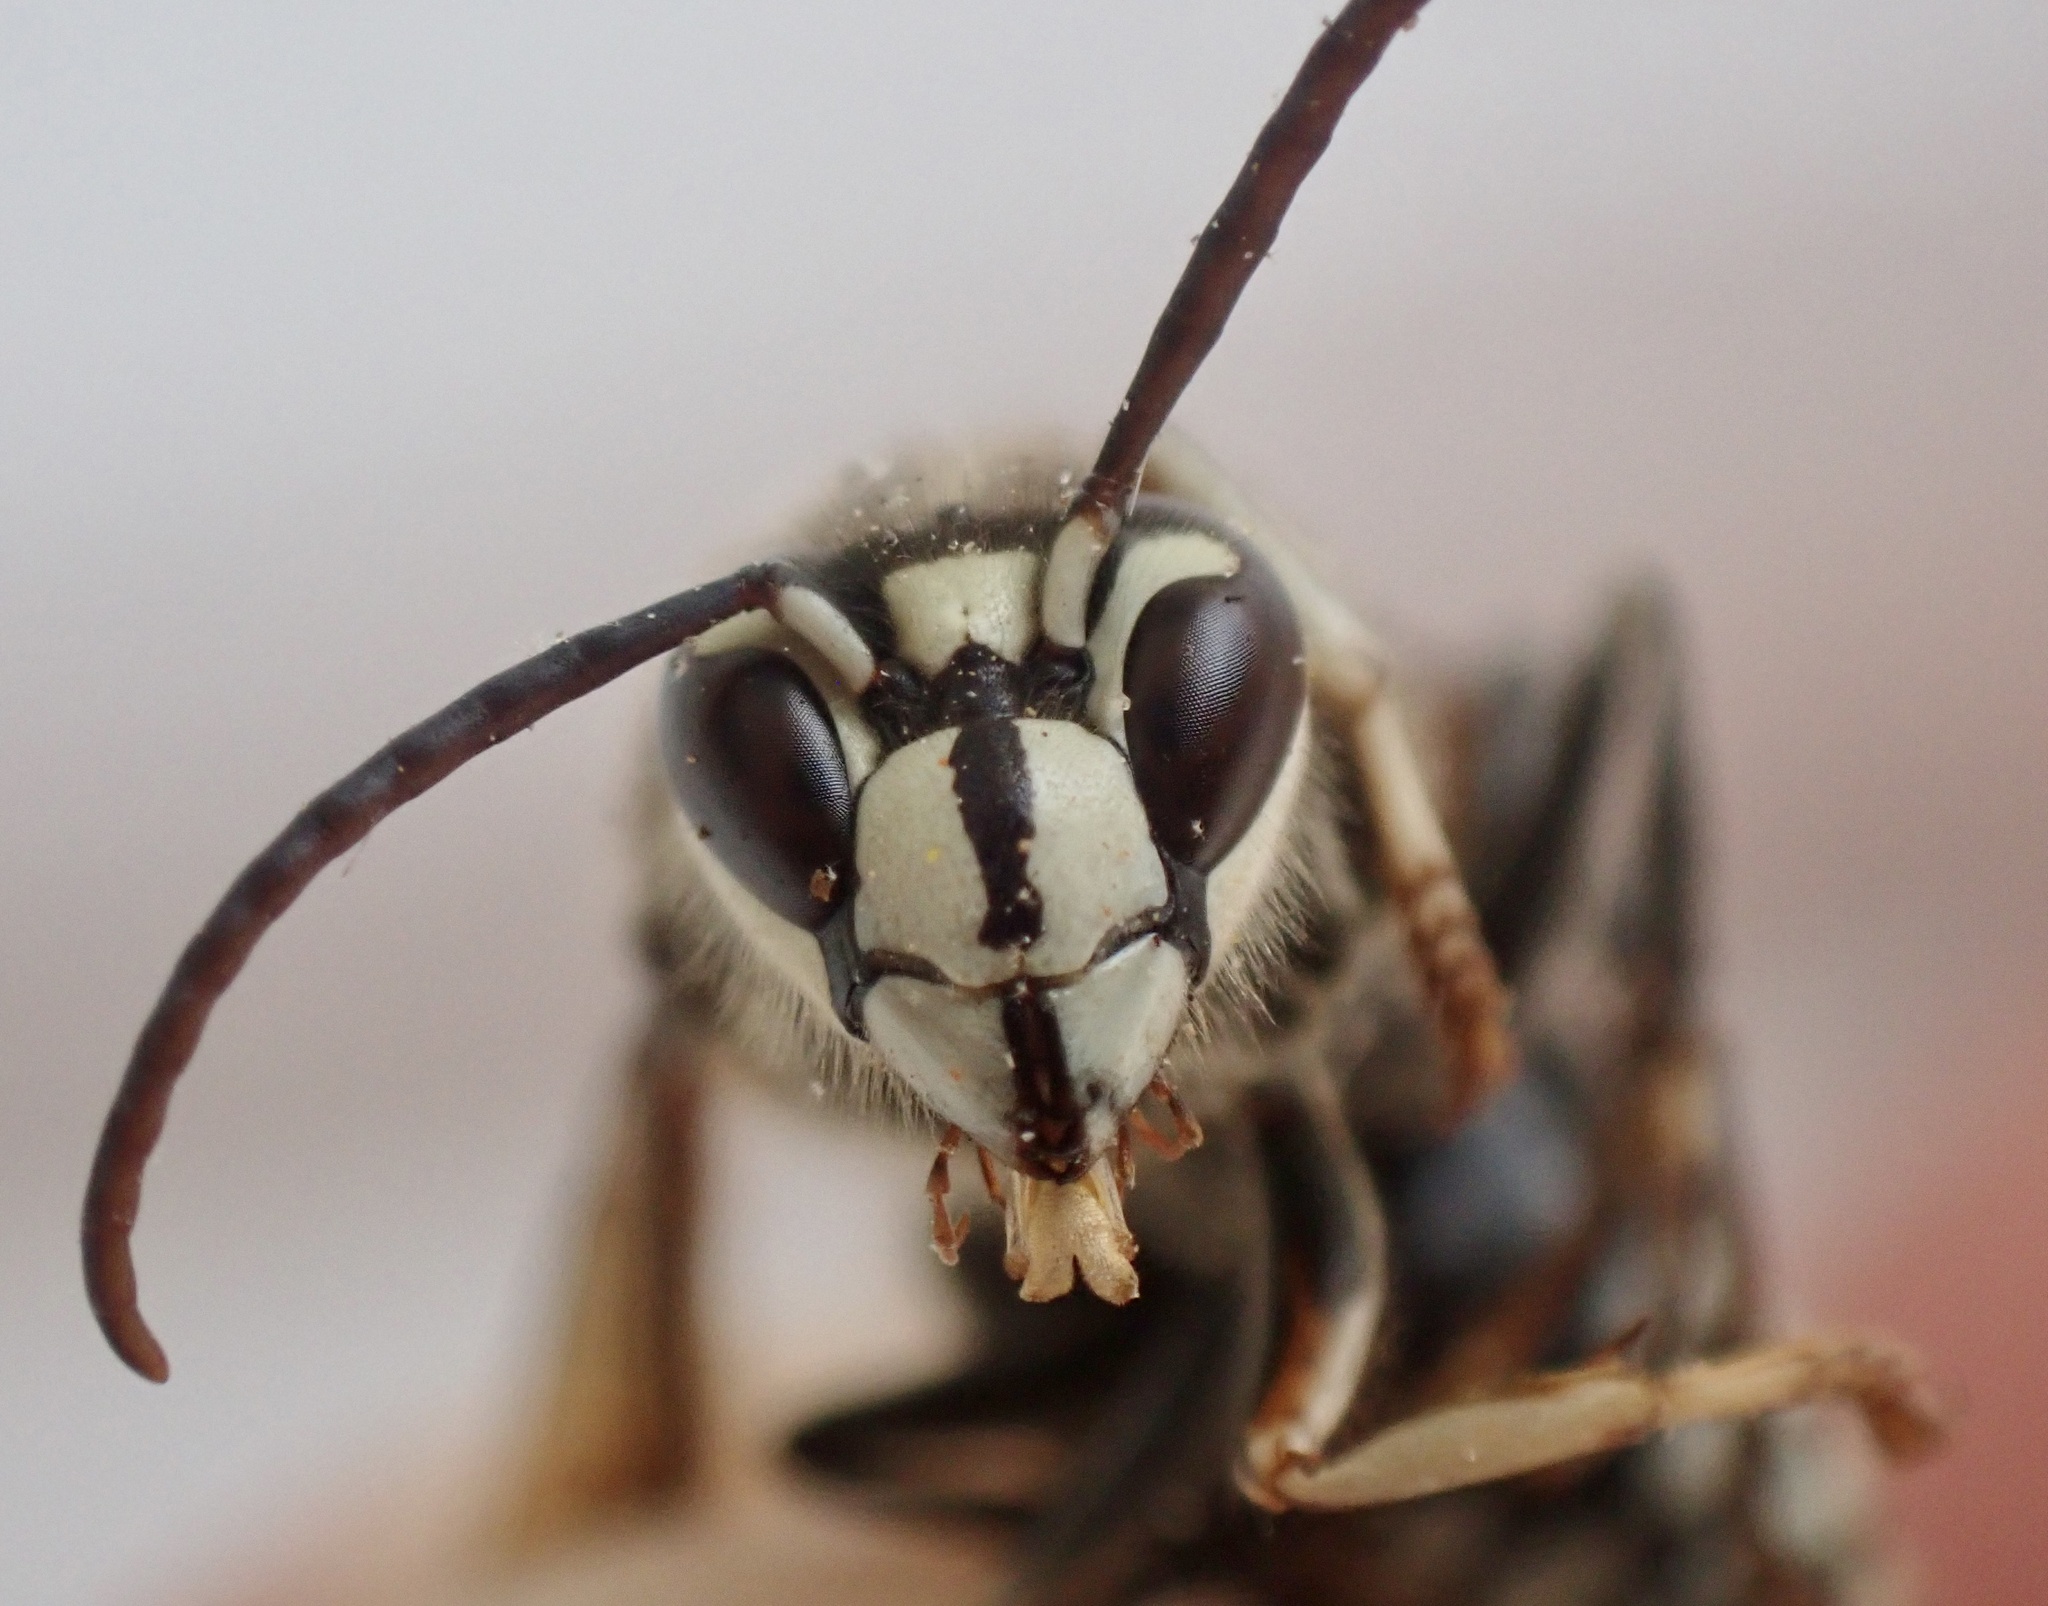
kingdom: Animalia
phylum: Arthropoda
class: Insecta
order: Hymenoptera
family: Vespidae
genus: Dolichovespula
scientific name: Dolichovespula maculata
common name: Bald-faced hornet
